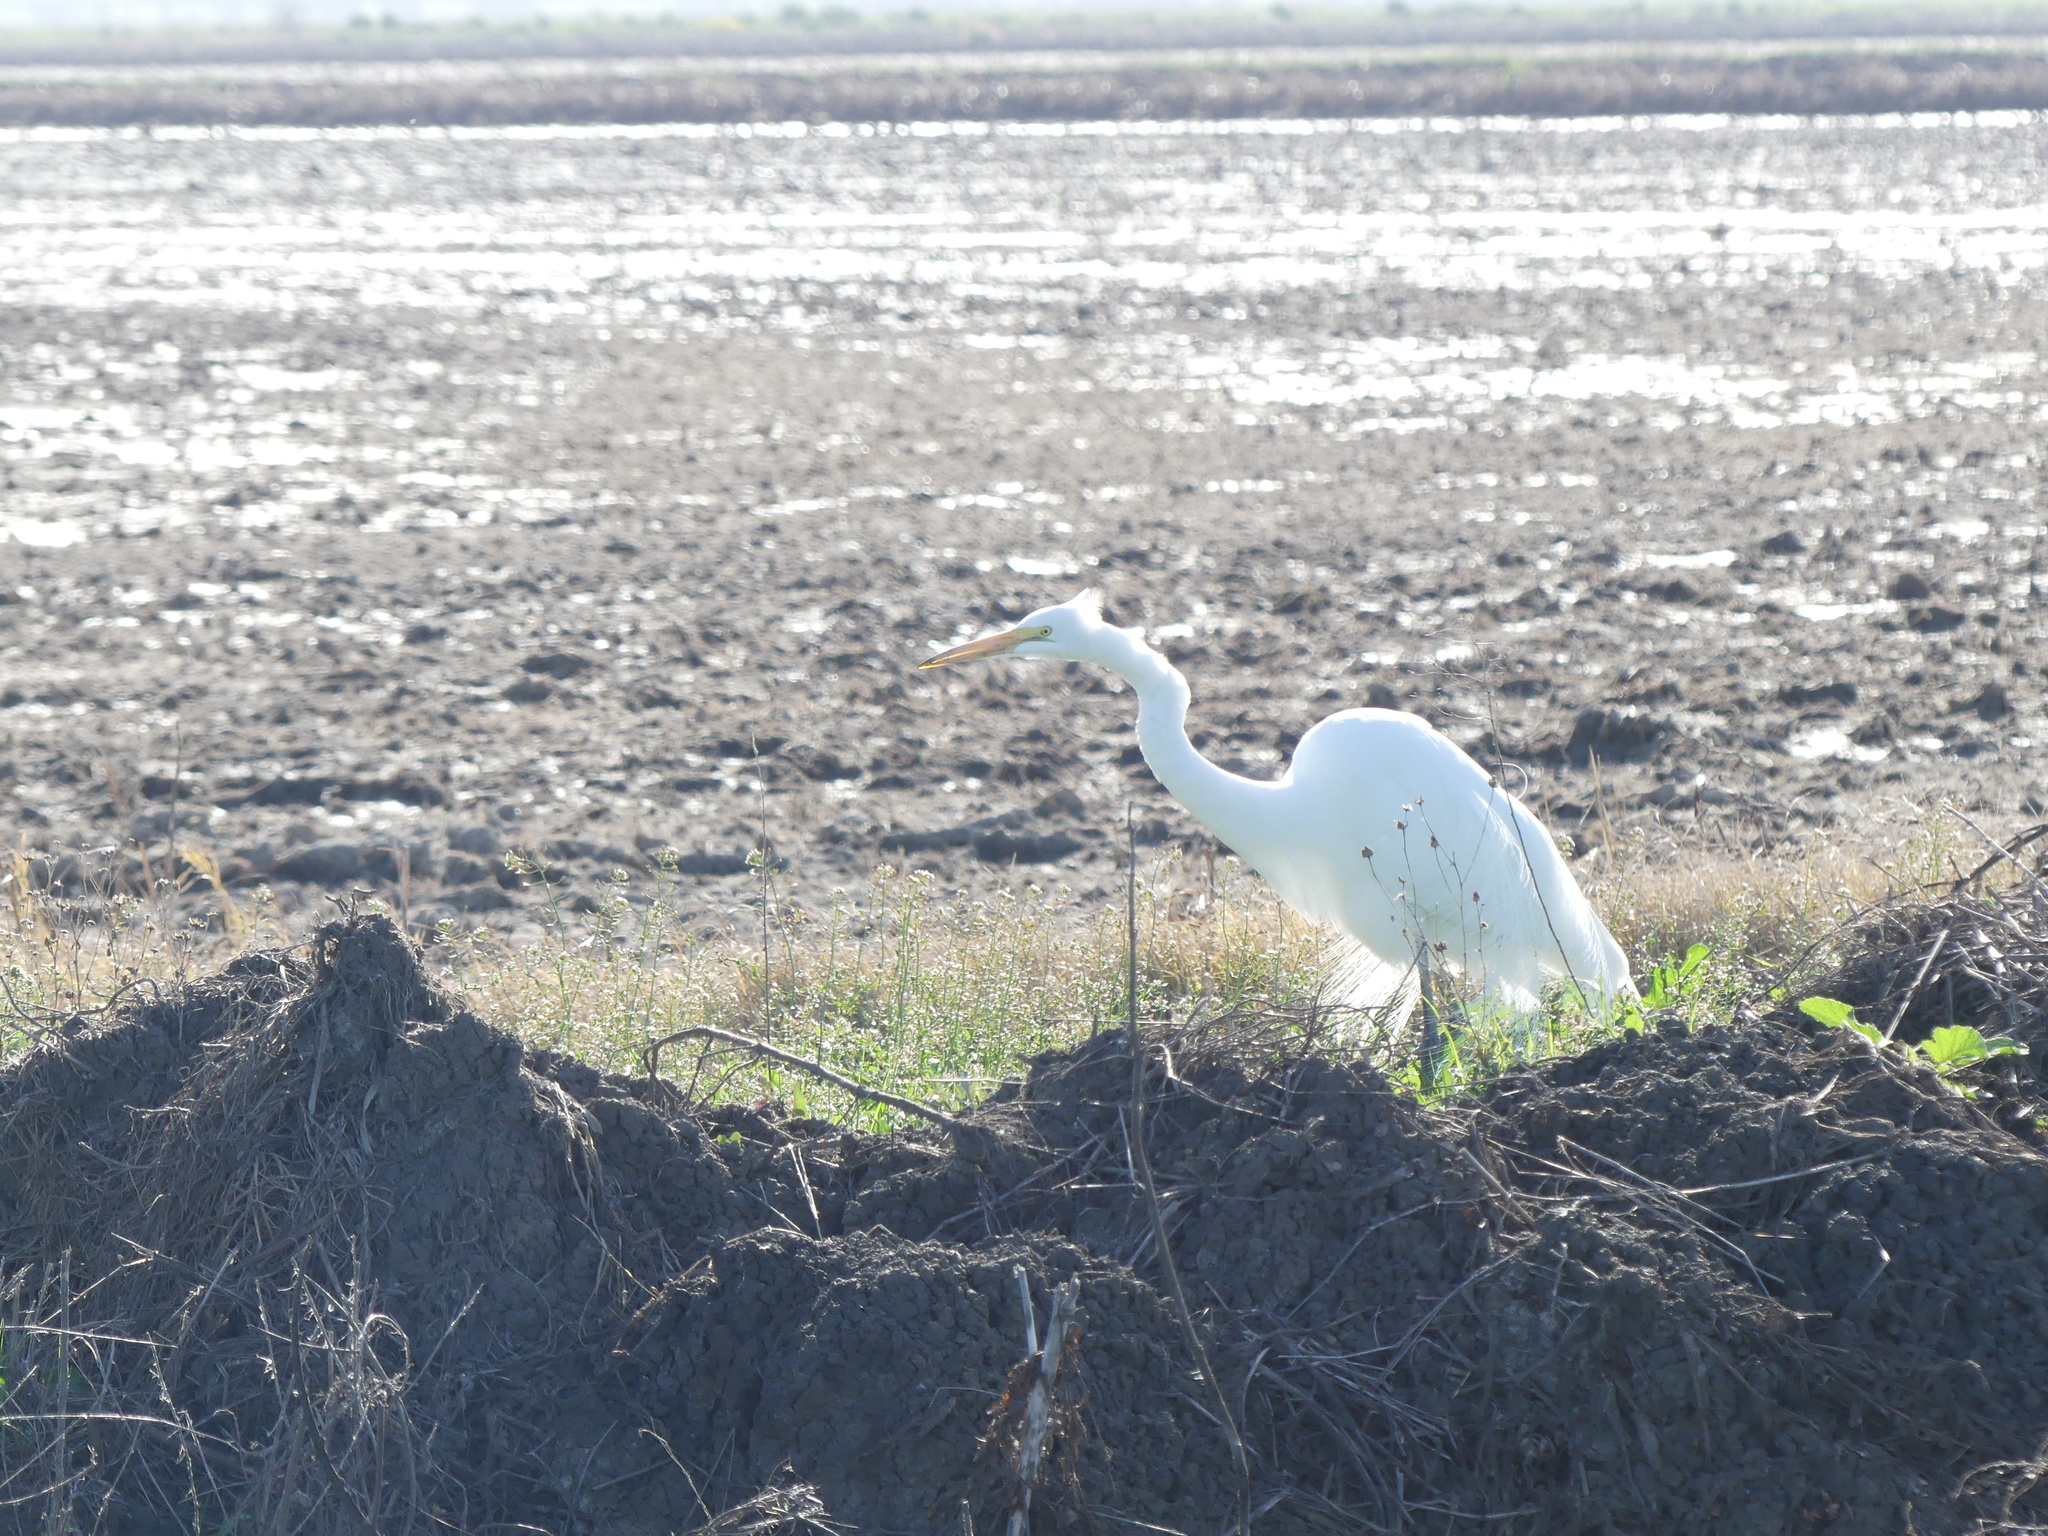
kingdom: Animalia
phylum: Chordata
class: Aves
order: Pelecaniformes
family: Ardeidae
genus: Ardea
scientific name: Ardea alba
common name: Great egret
